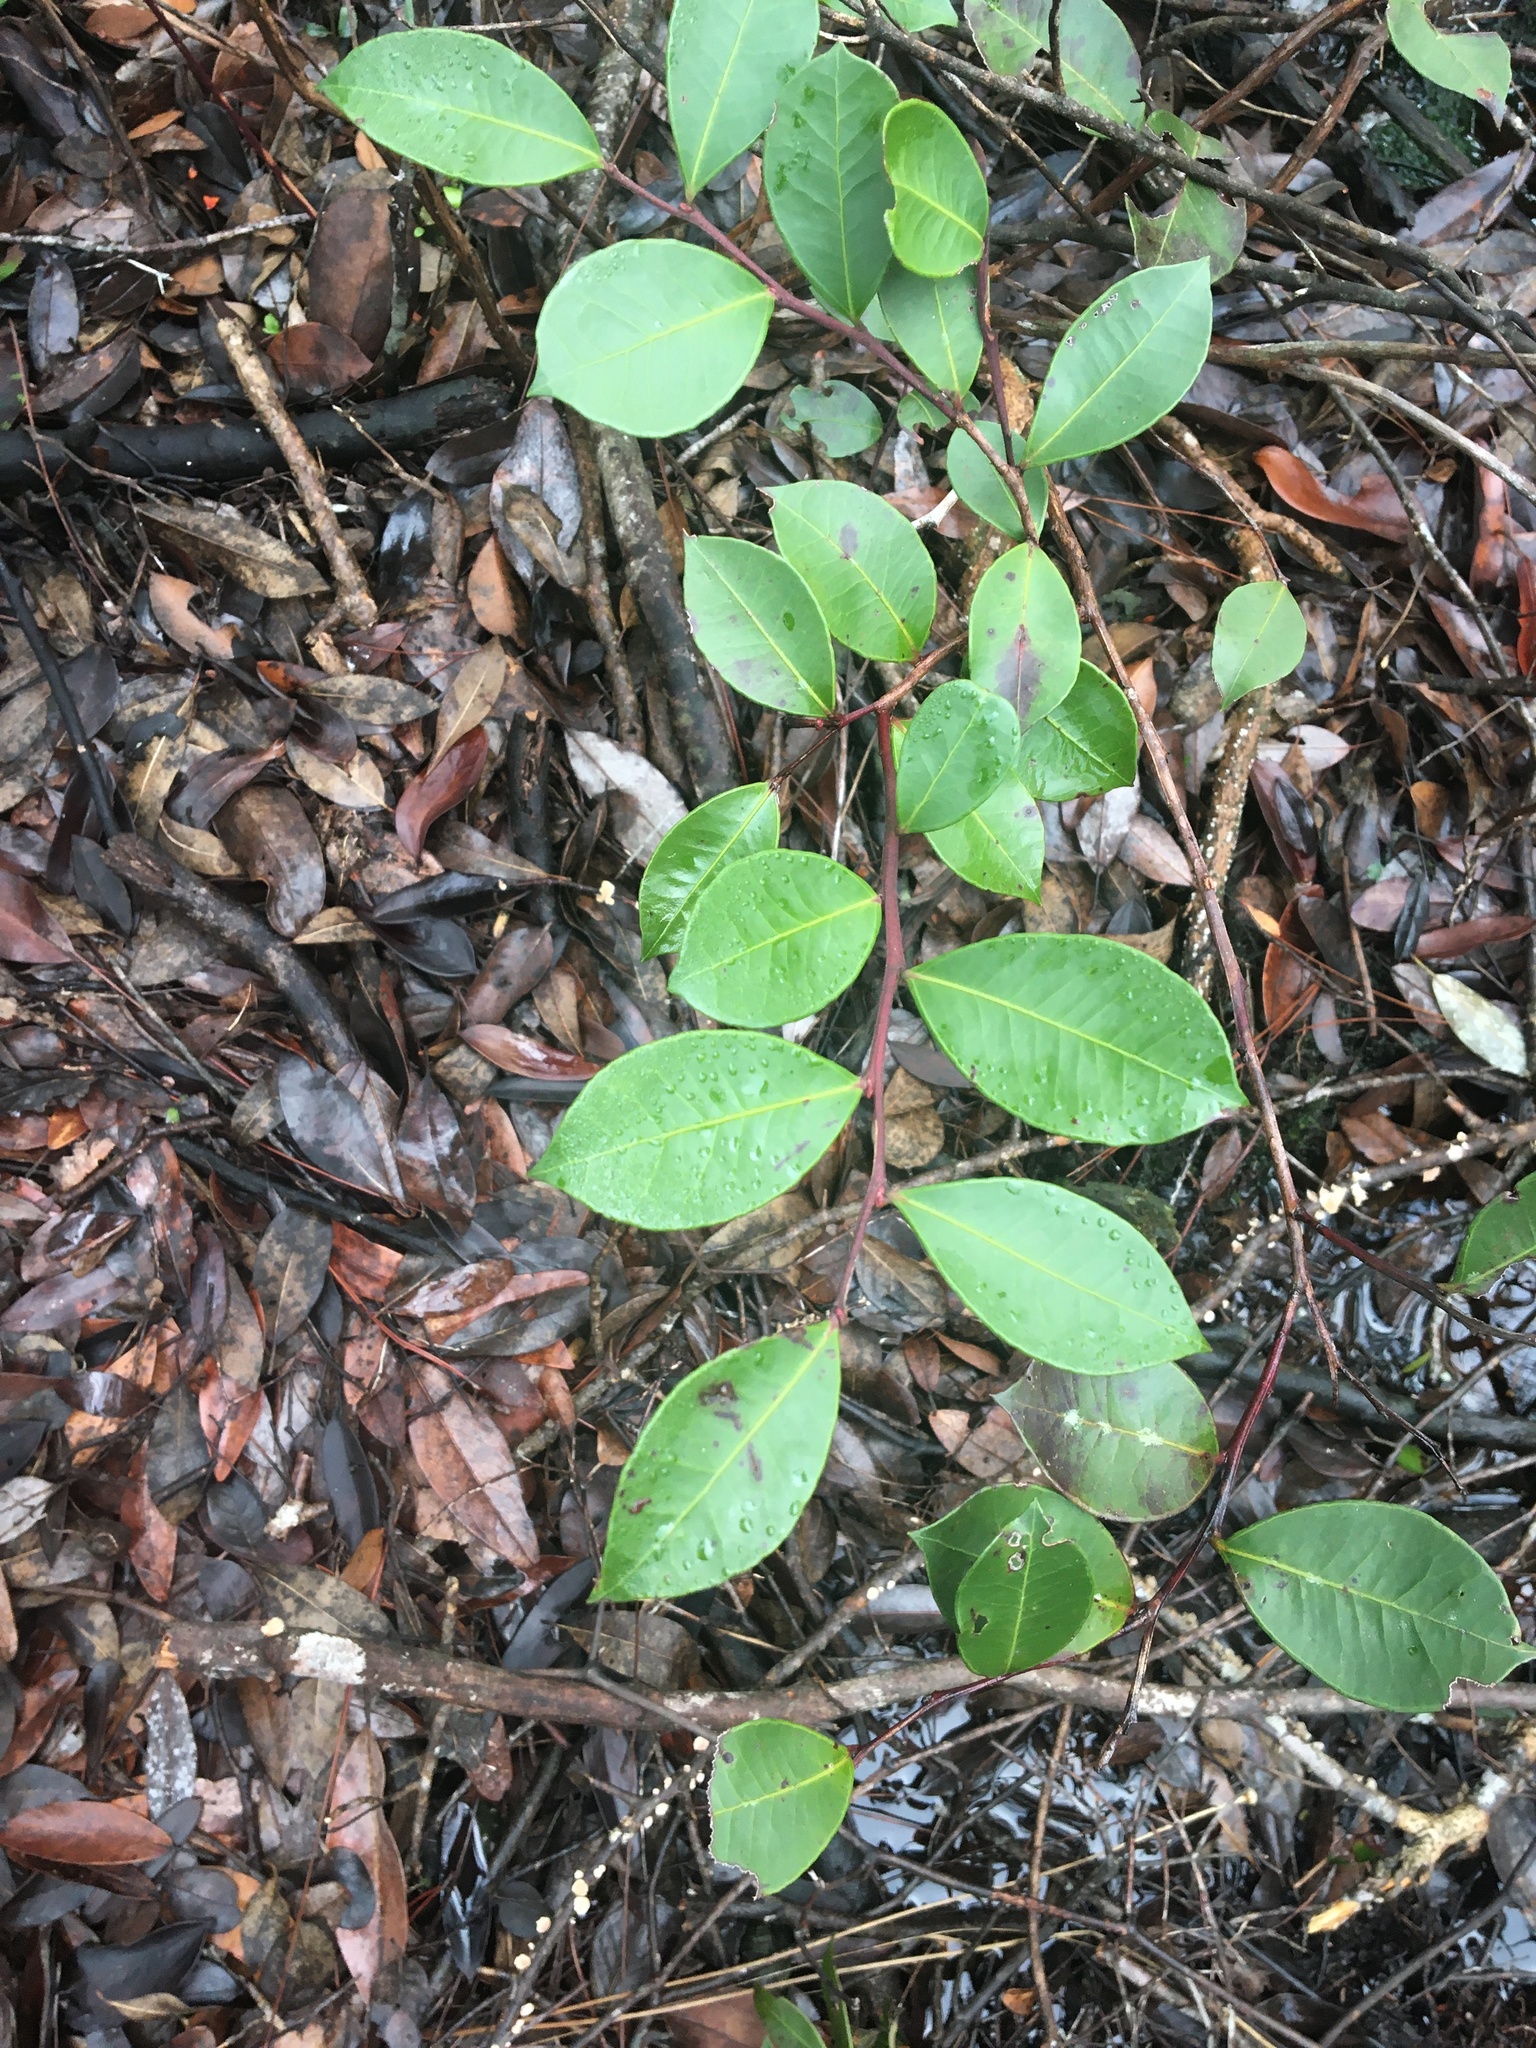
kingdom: Plantae
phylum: Tracheophyta
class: Magnoliopsida
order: Ericales
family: Ericaceae
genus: Lyonia
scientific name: Lyonia lucida
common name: Fetterbush
